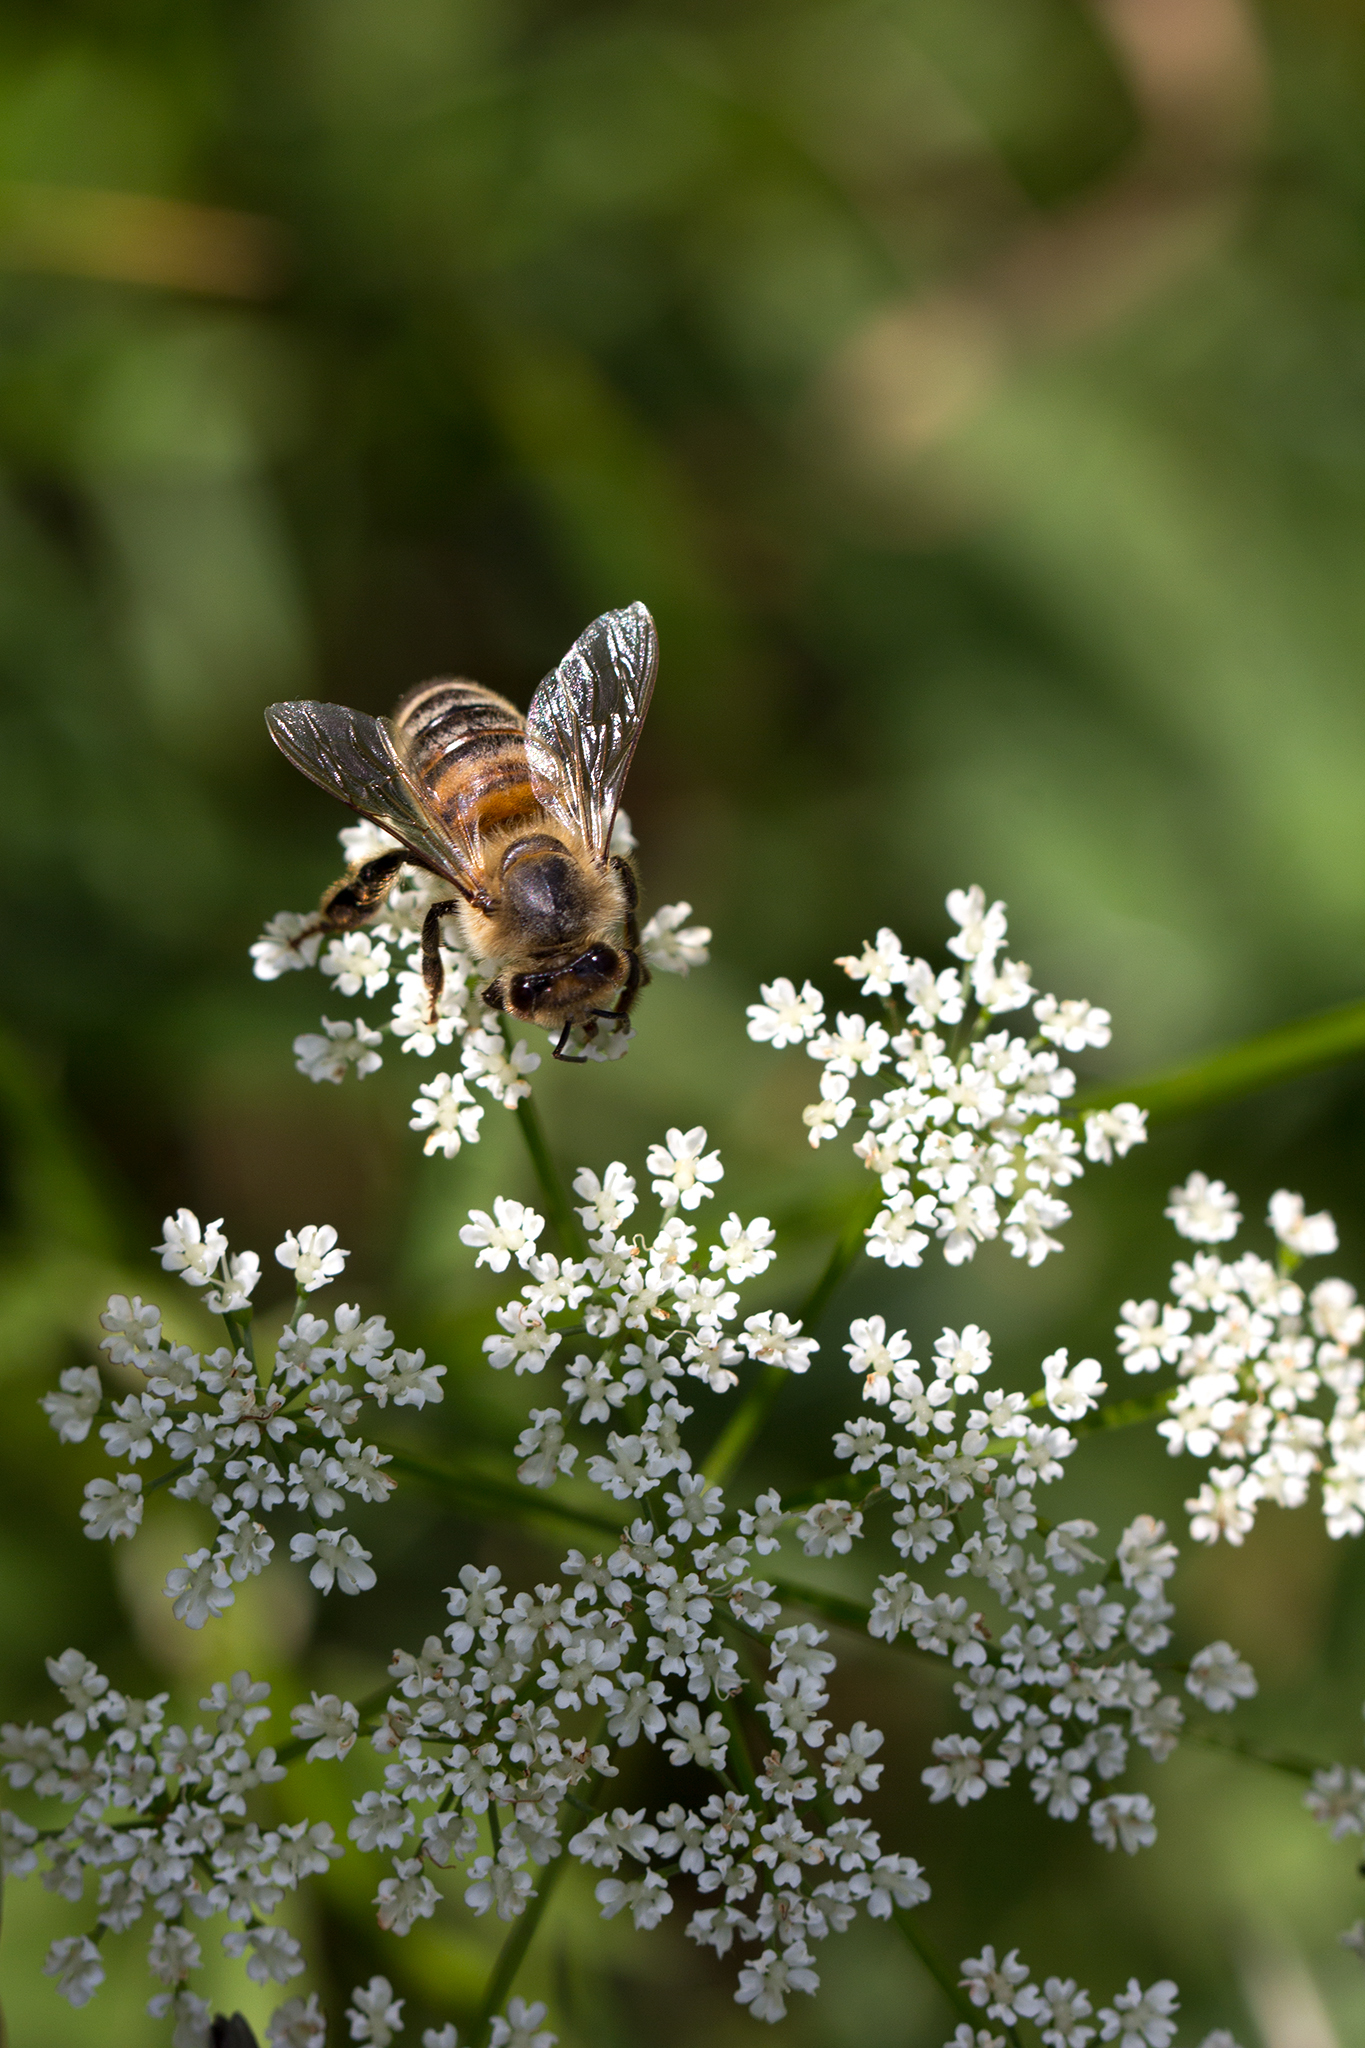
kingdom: Animalia
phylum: Arthropoda
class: Insecta
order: Hymenoptera
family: Apidae
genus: Apis
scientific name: Apis mellifera
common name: Honey bee
